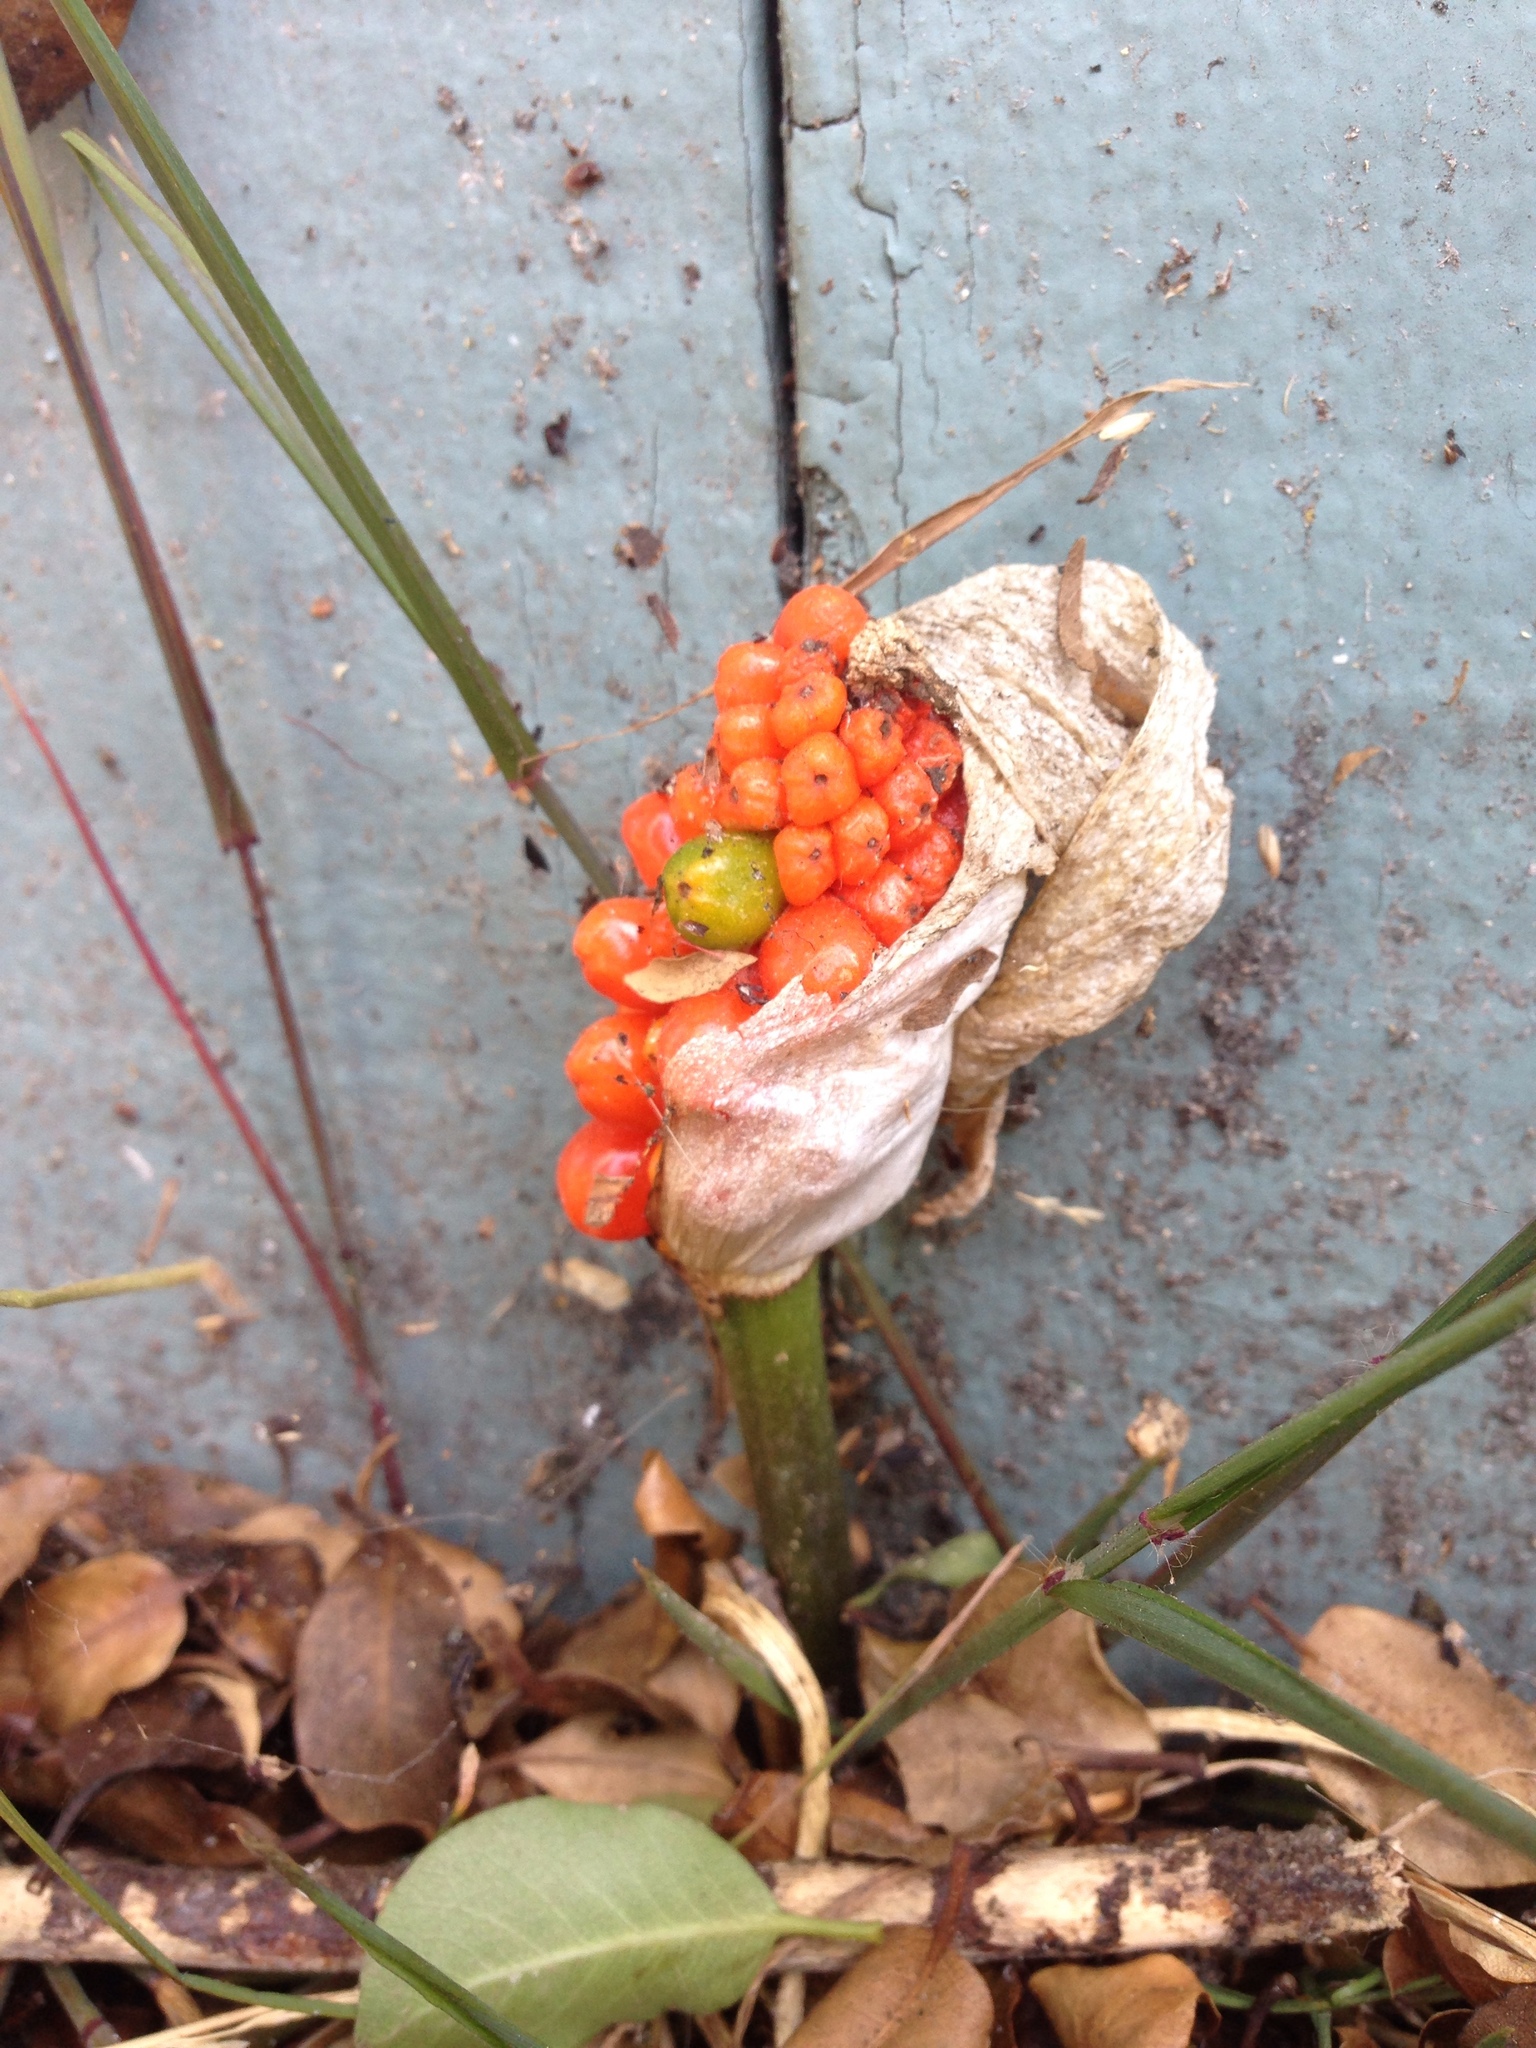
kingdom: Plantae
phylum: Tracheophyta
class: Liliopsida
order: Alismatales
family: Araceae
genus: Arum
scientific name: Arum italicum
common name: Italian lords-and-ladies
